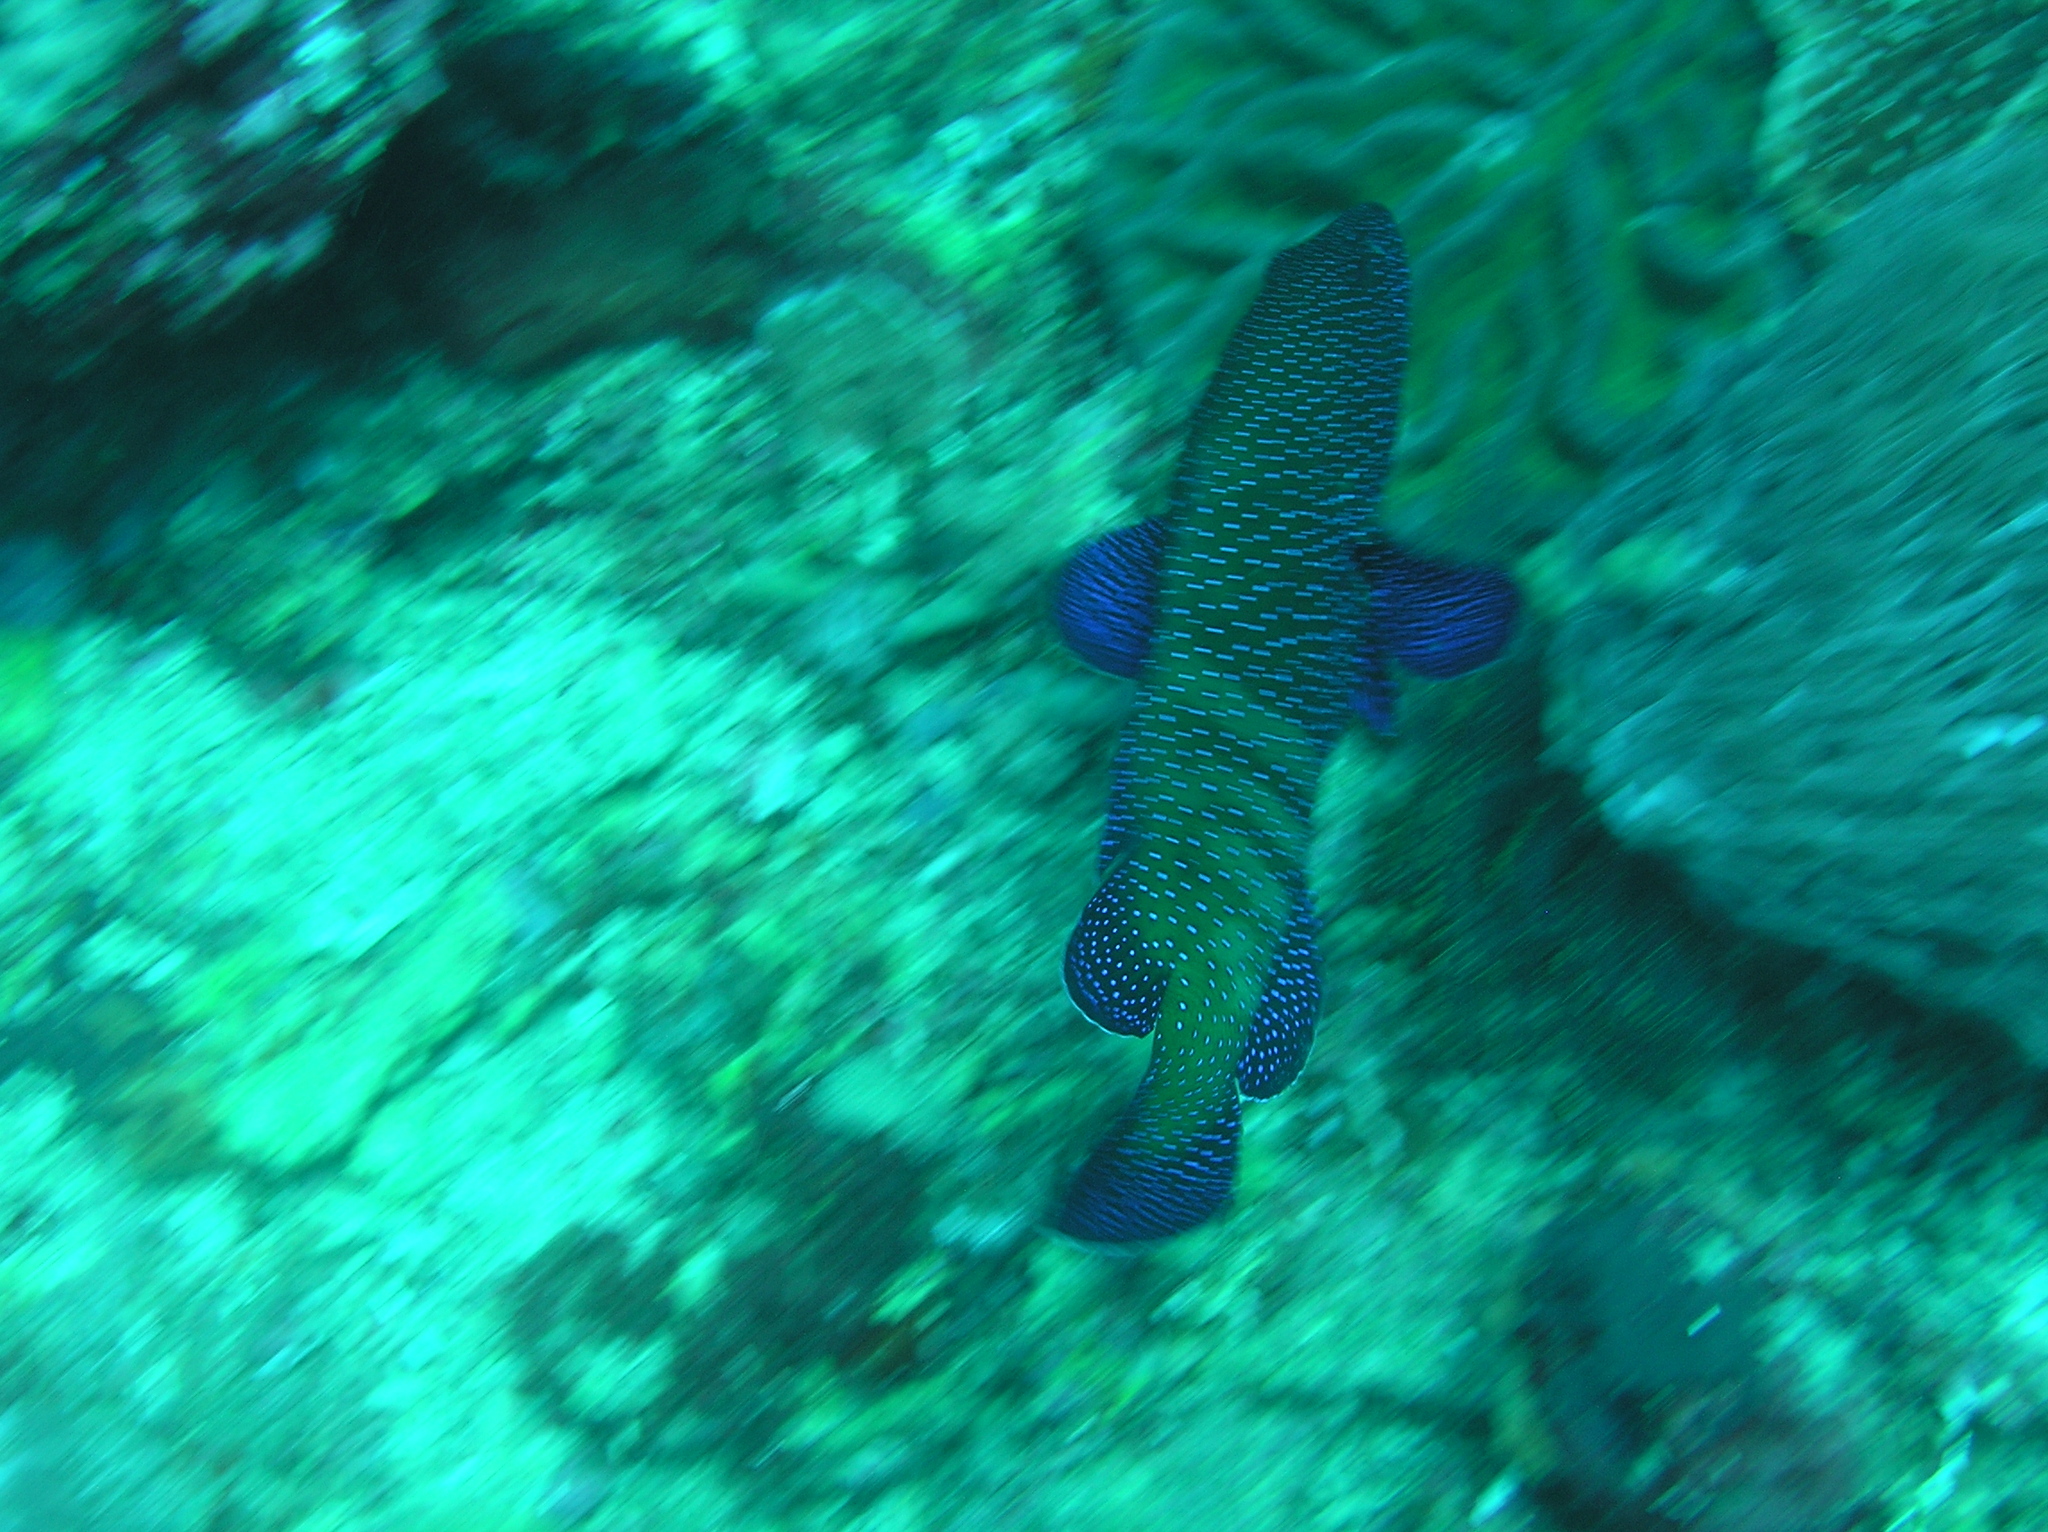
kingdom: Animalia
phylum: Chordata
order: Perciformes
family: Serranidae
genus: Cephalopholis
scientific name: Cephalopholis argus
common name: Peacock grouper
